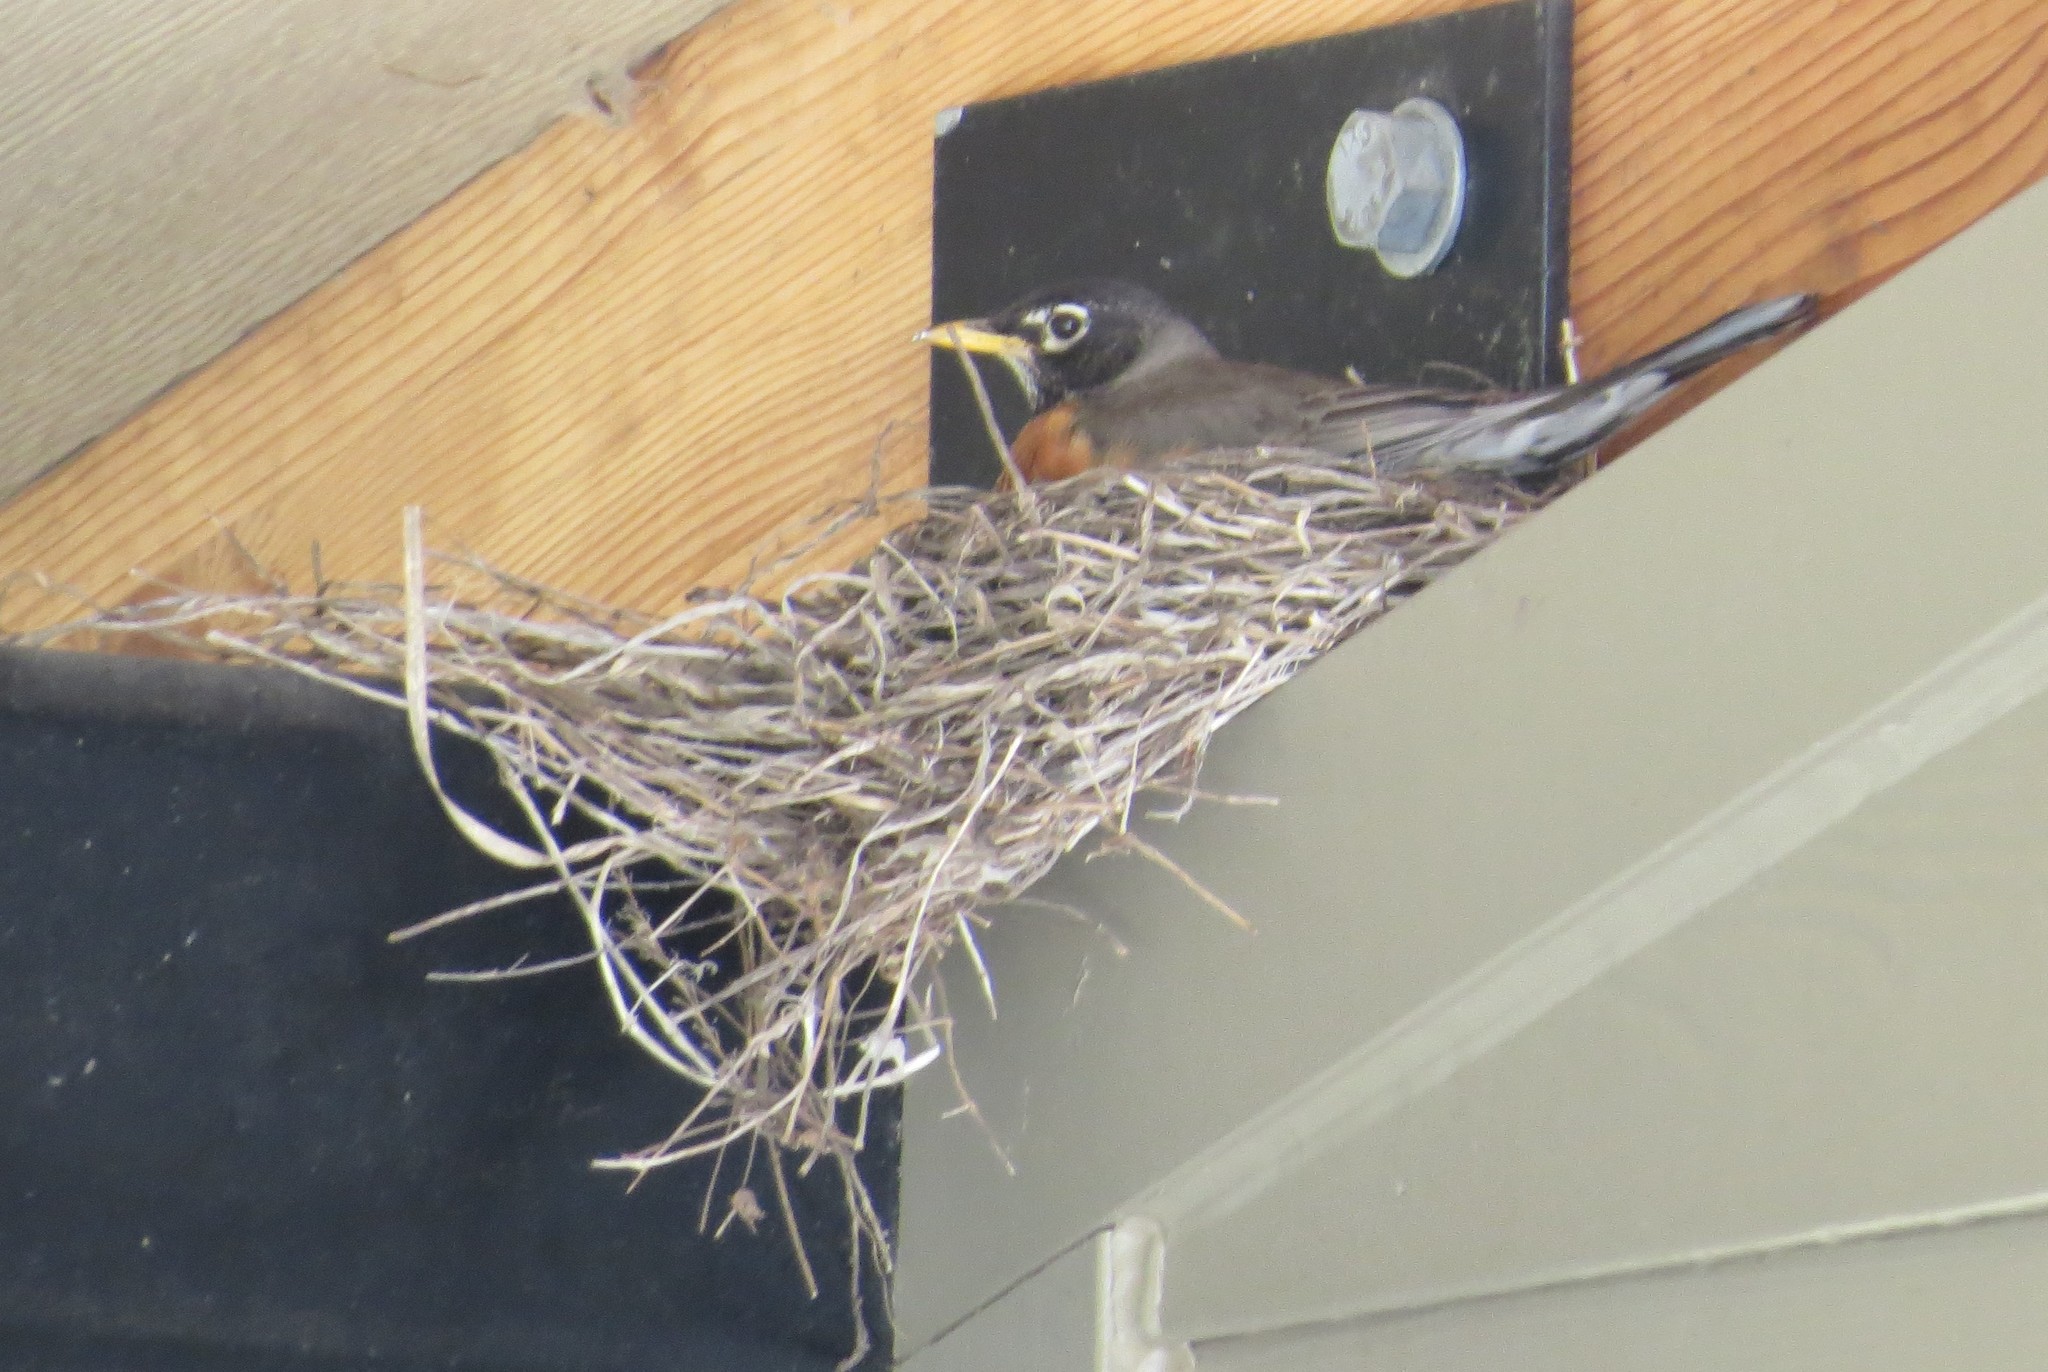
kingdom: Animalia
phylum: Chordata
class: Aves
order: Passeriformes
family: Turdidae
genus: Turdus
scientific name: Turdus migratorius
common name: American robin
